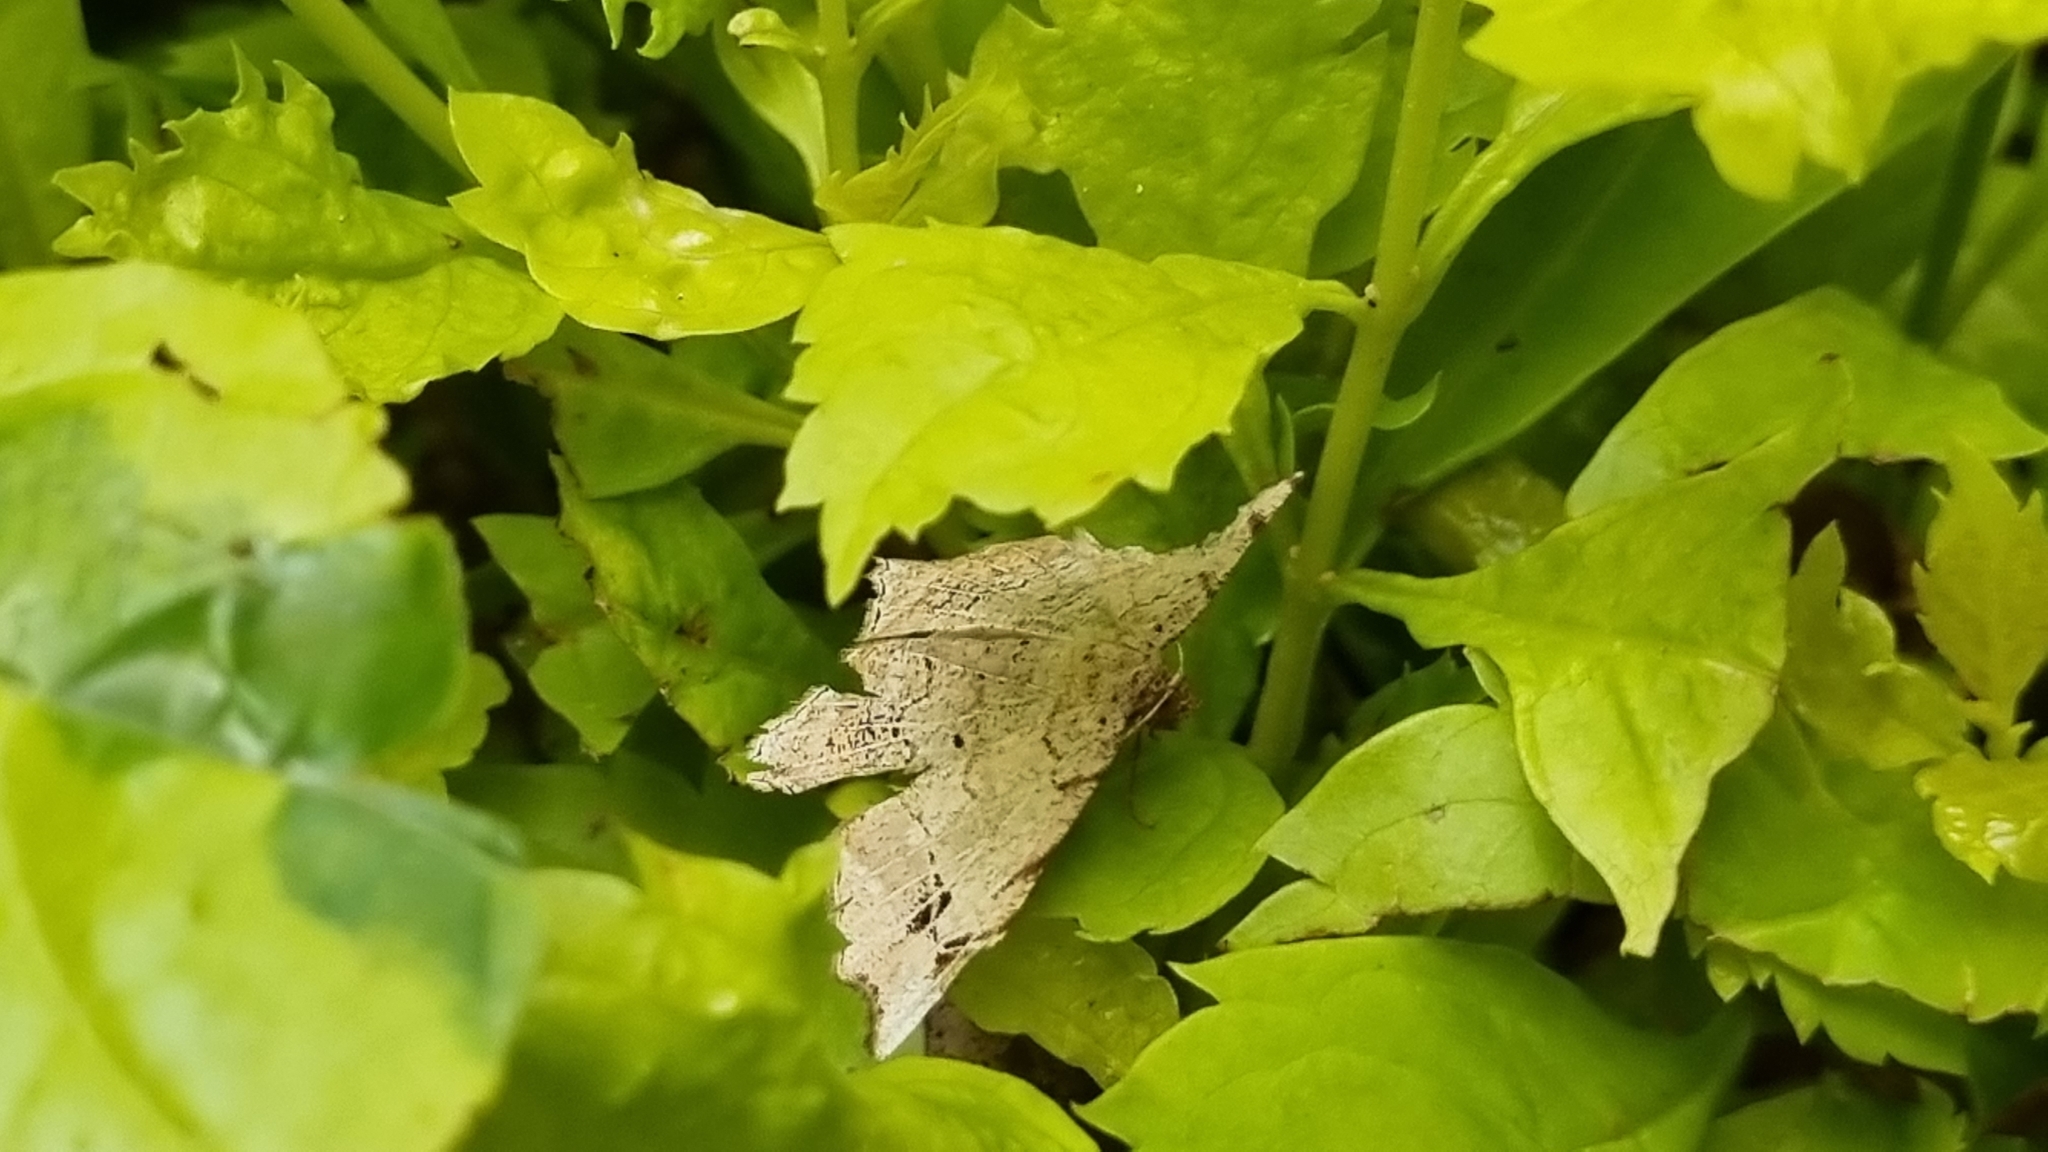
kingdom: Animalia
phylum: Arthropoda
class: Insecta
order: Lepidoptera
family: Geometridae
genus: Chiasmia
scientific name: Chiasmia emersaria
